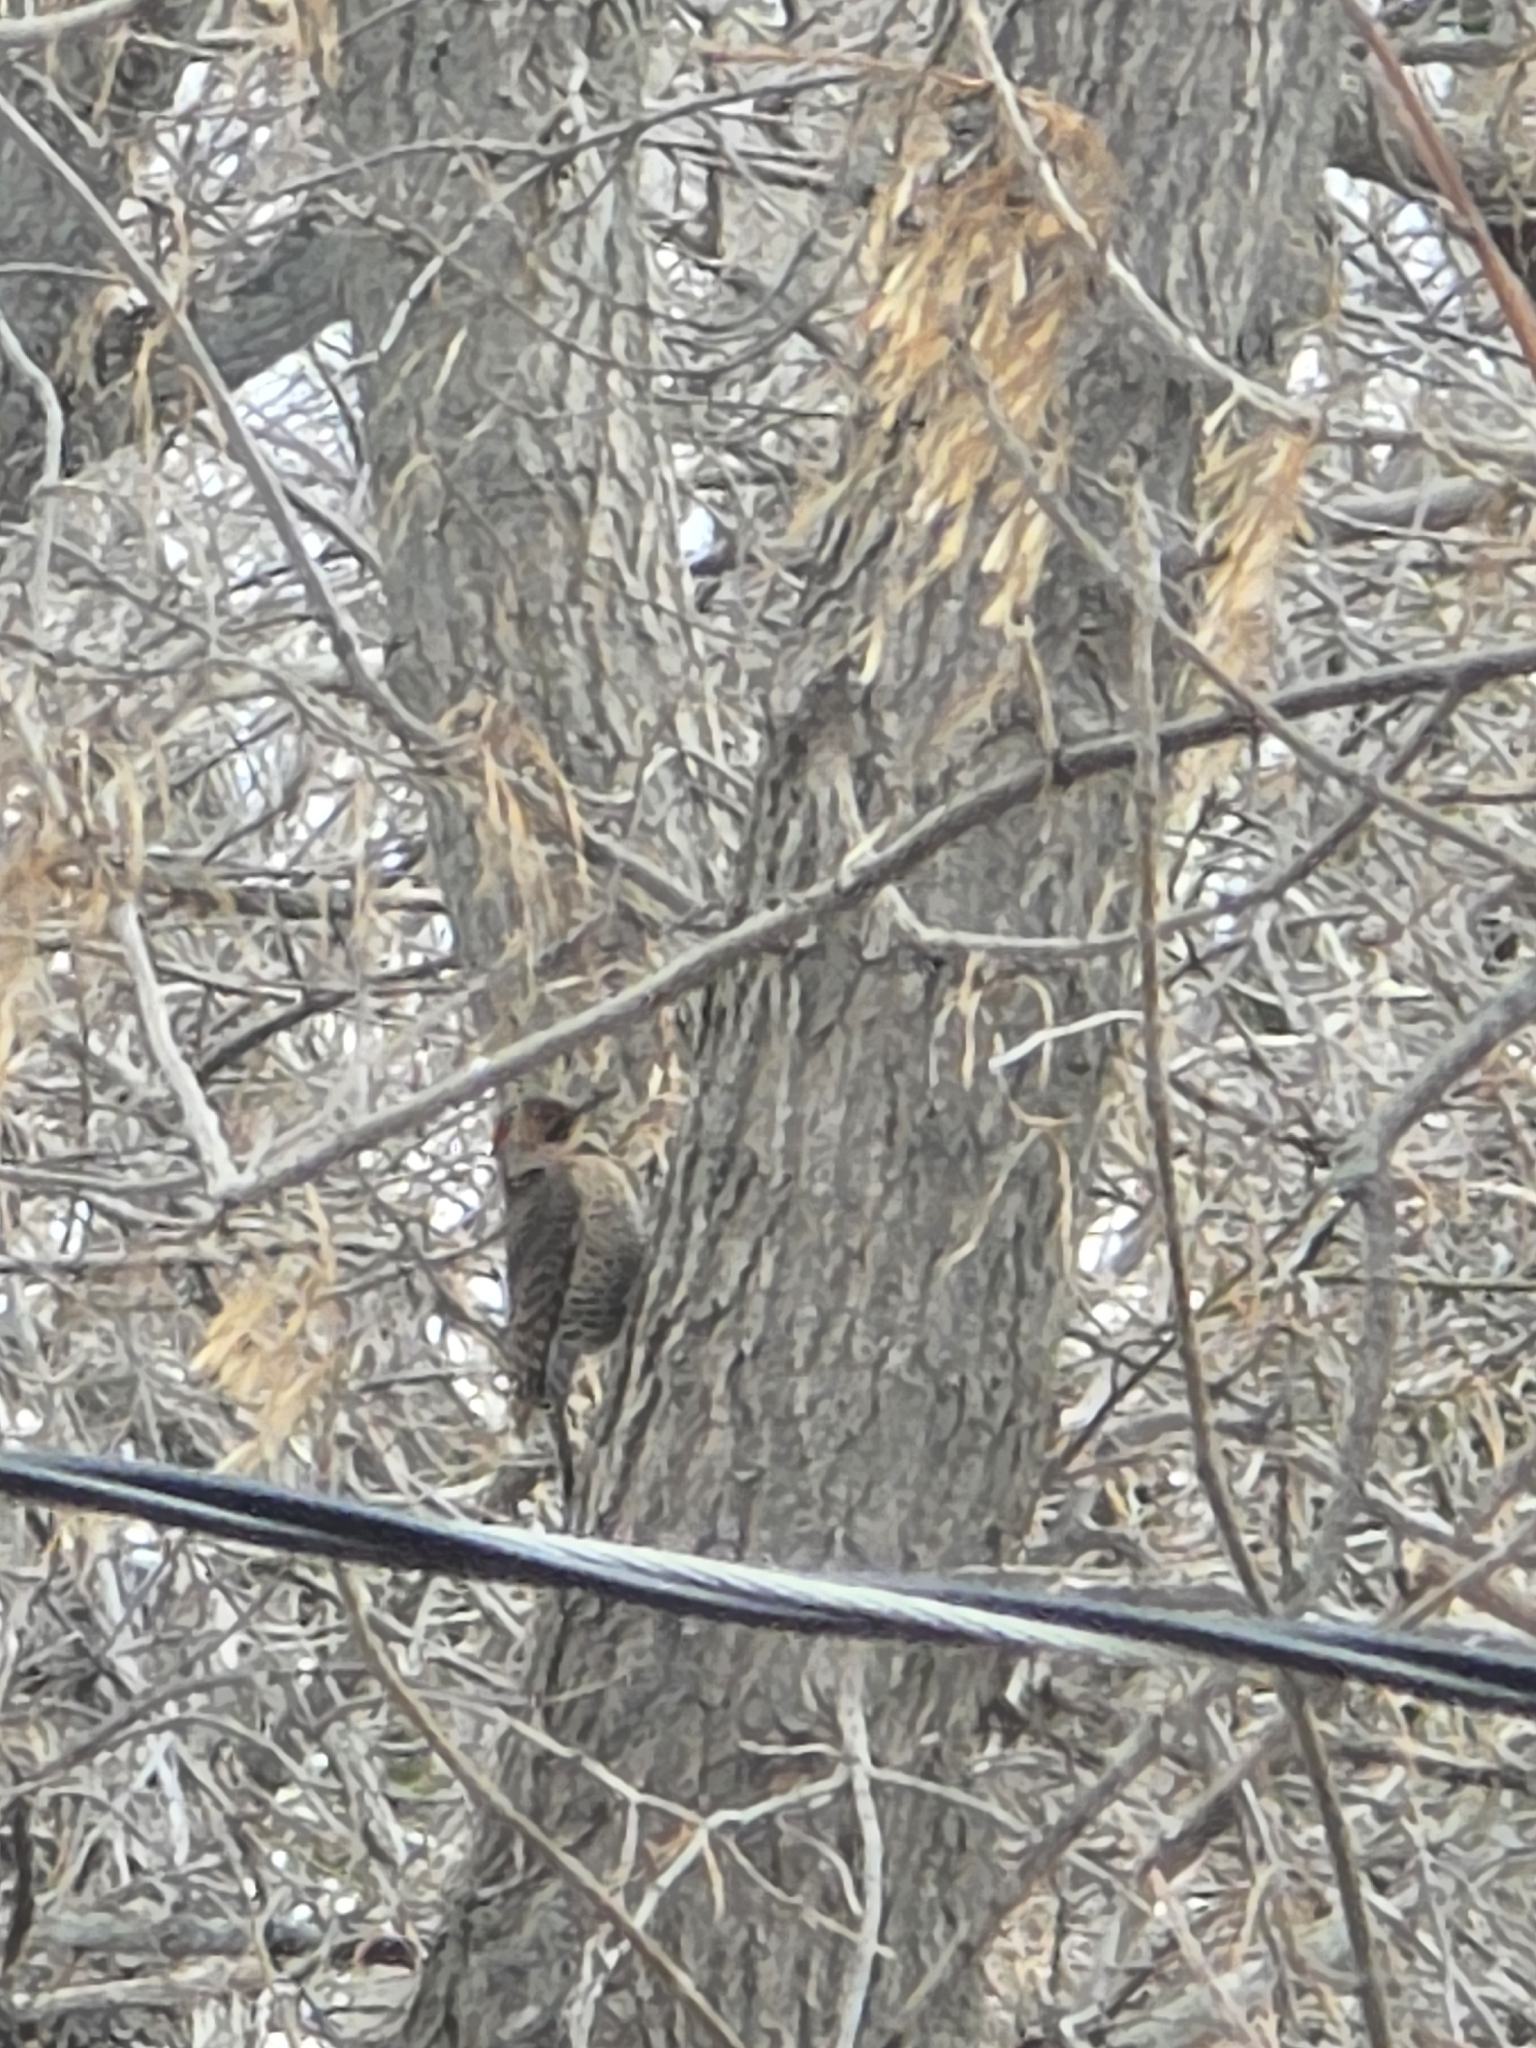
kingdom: Animalia
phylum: Chordata
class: Aves
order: Piciformes
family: Picidae
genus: Colaptes
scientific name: Colaptes auratus
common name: Northern flicker
